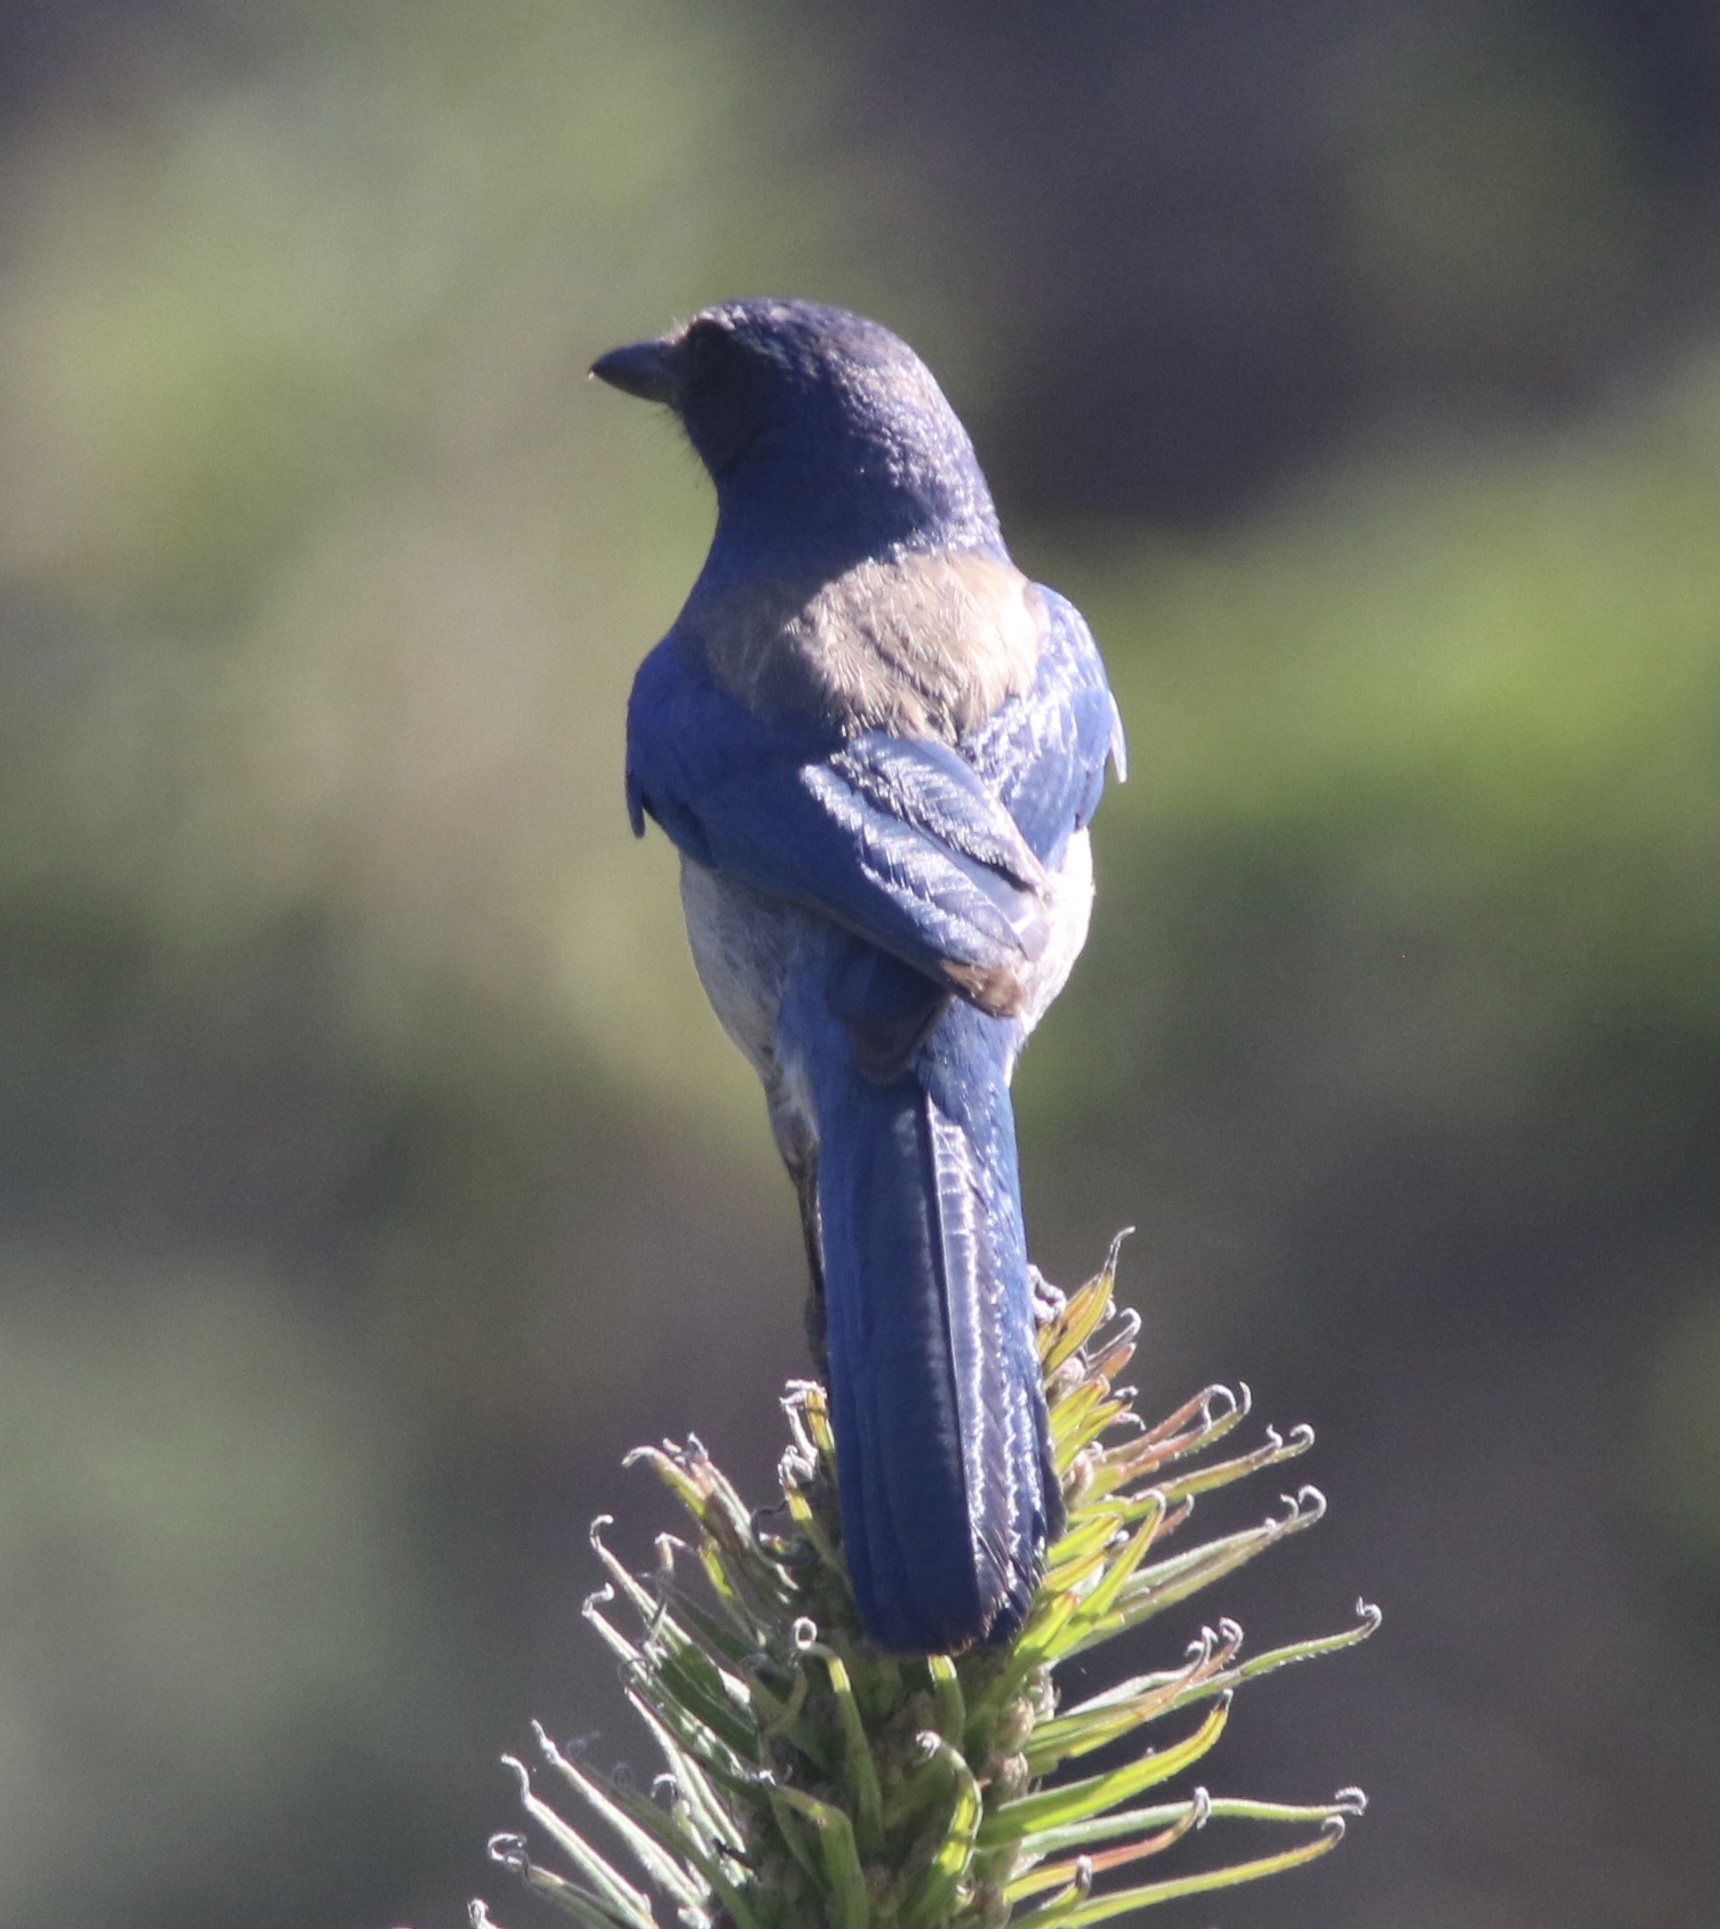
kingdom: Animalia
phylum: Chordata
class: Aves
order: Passeriformes
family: Corvidae
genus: Aphelocoma
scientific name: Aphelocoma californica
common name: California scrub-jay
